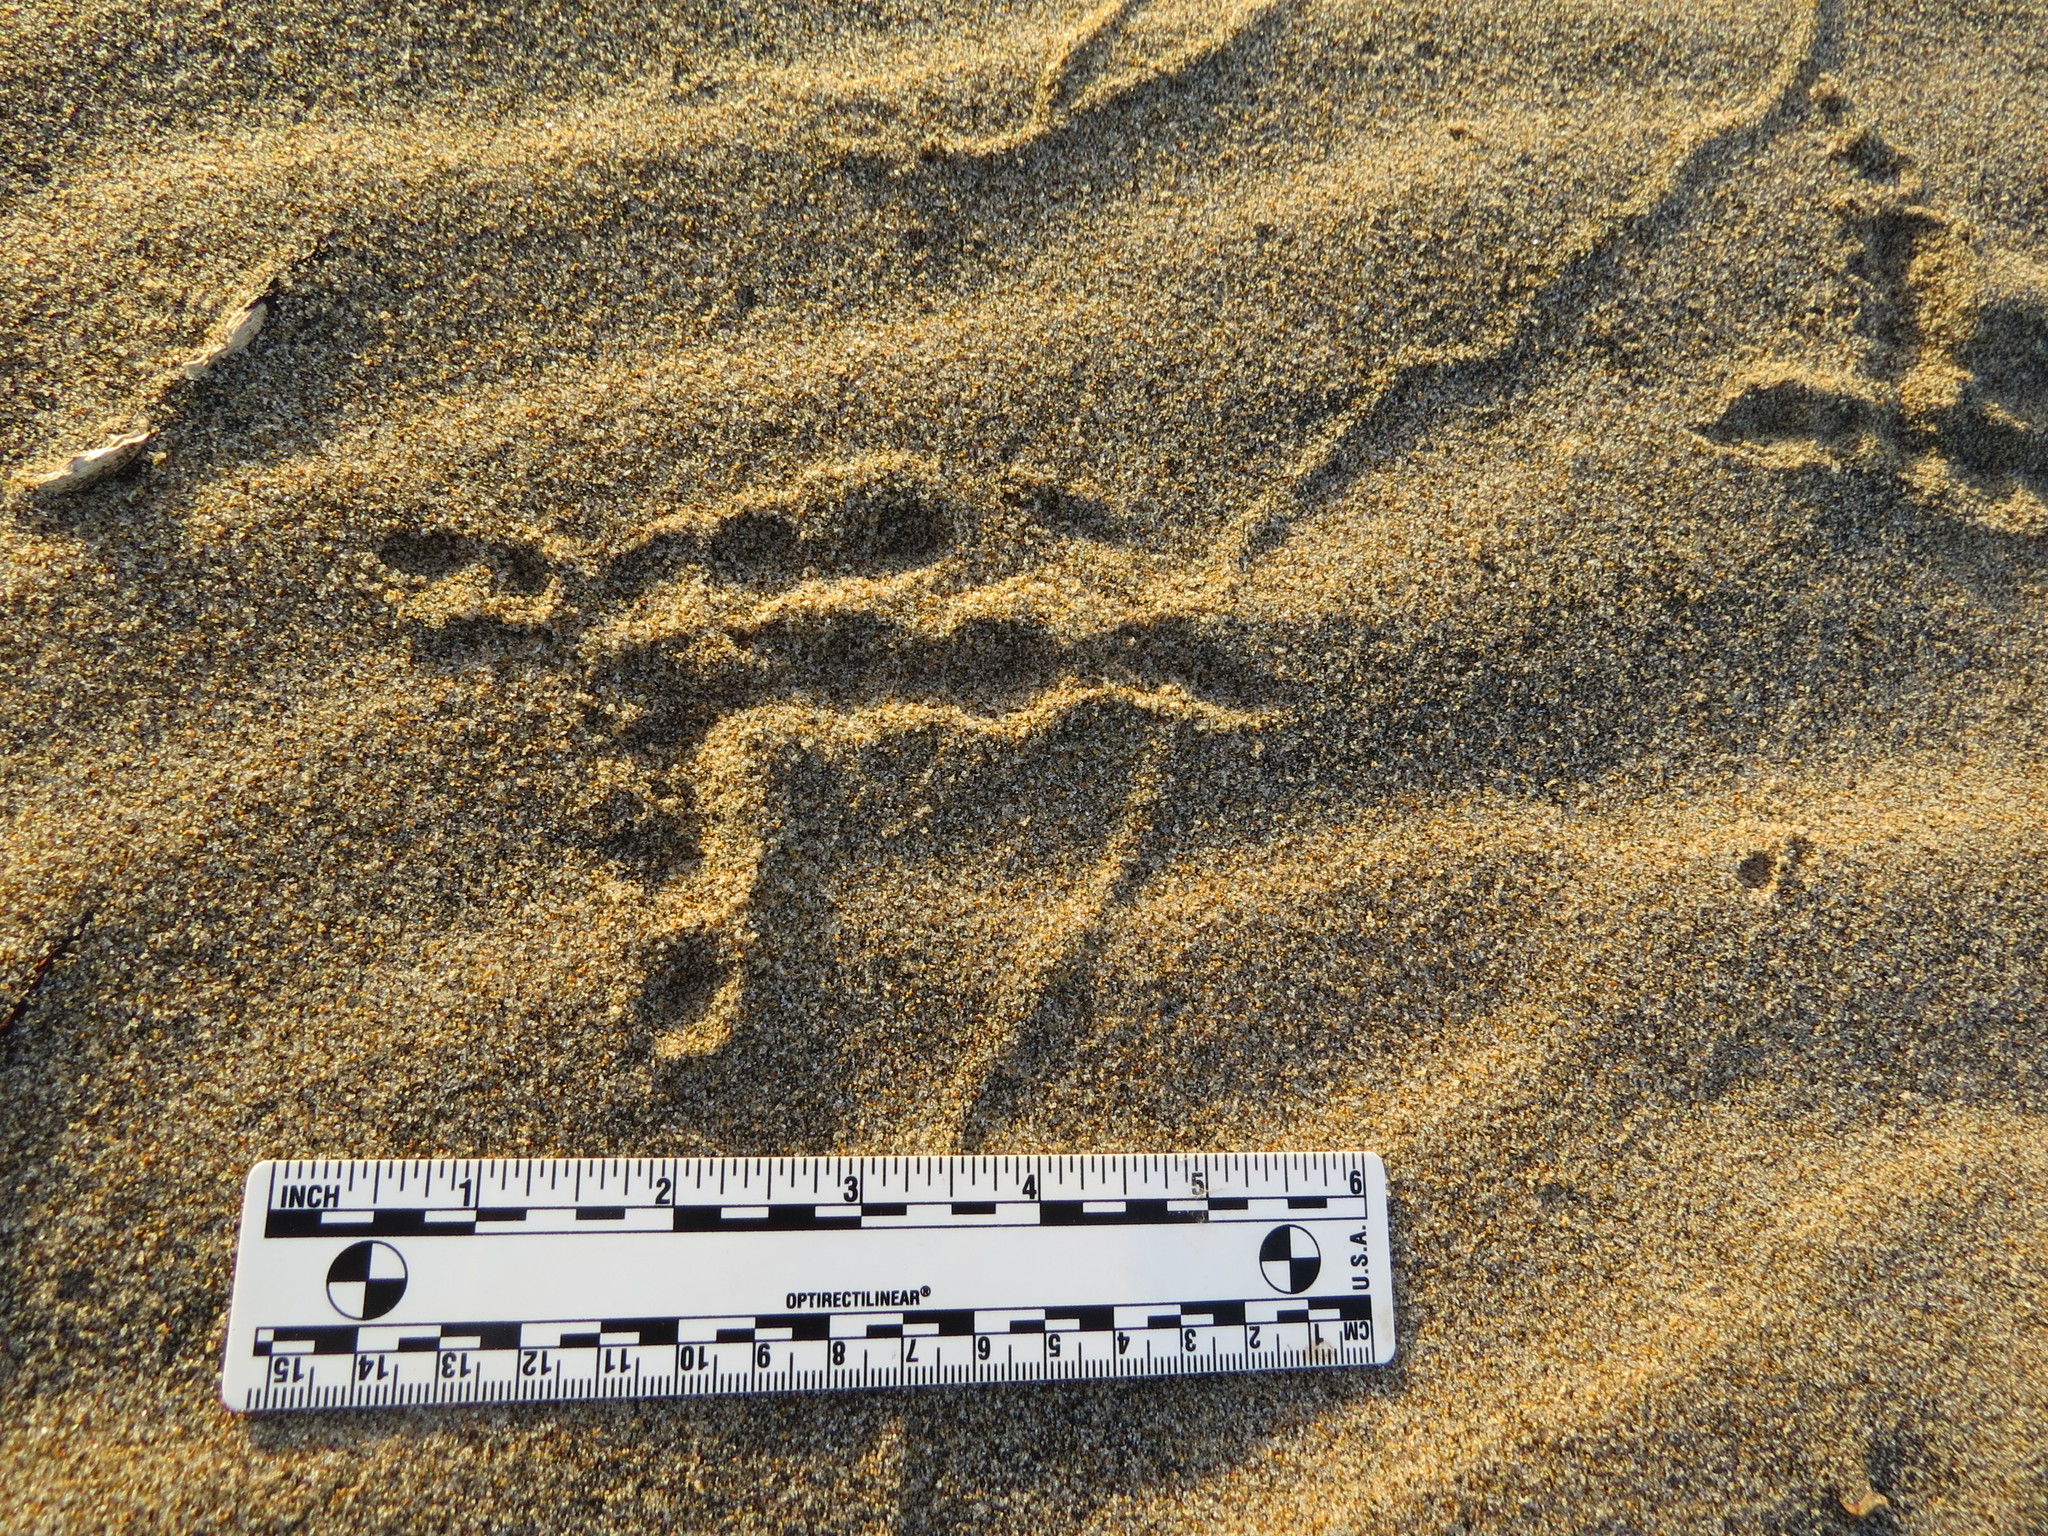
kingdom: Animalia
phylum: Chordata
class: Aves
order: Strigiformes
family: Strigidae
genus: Bubo
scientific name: Bubo virginianus
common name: Great horned owl
